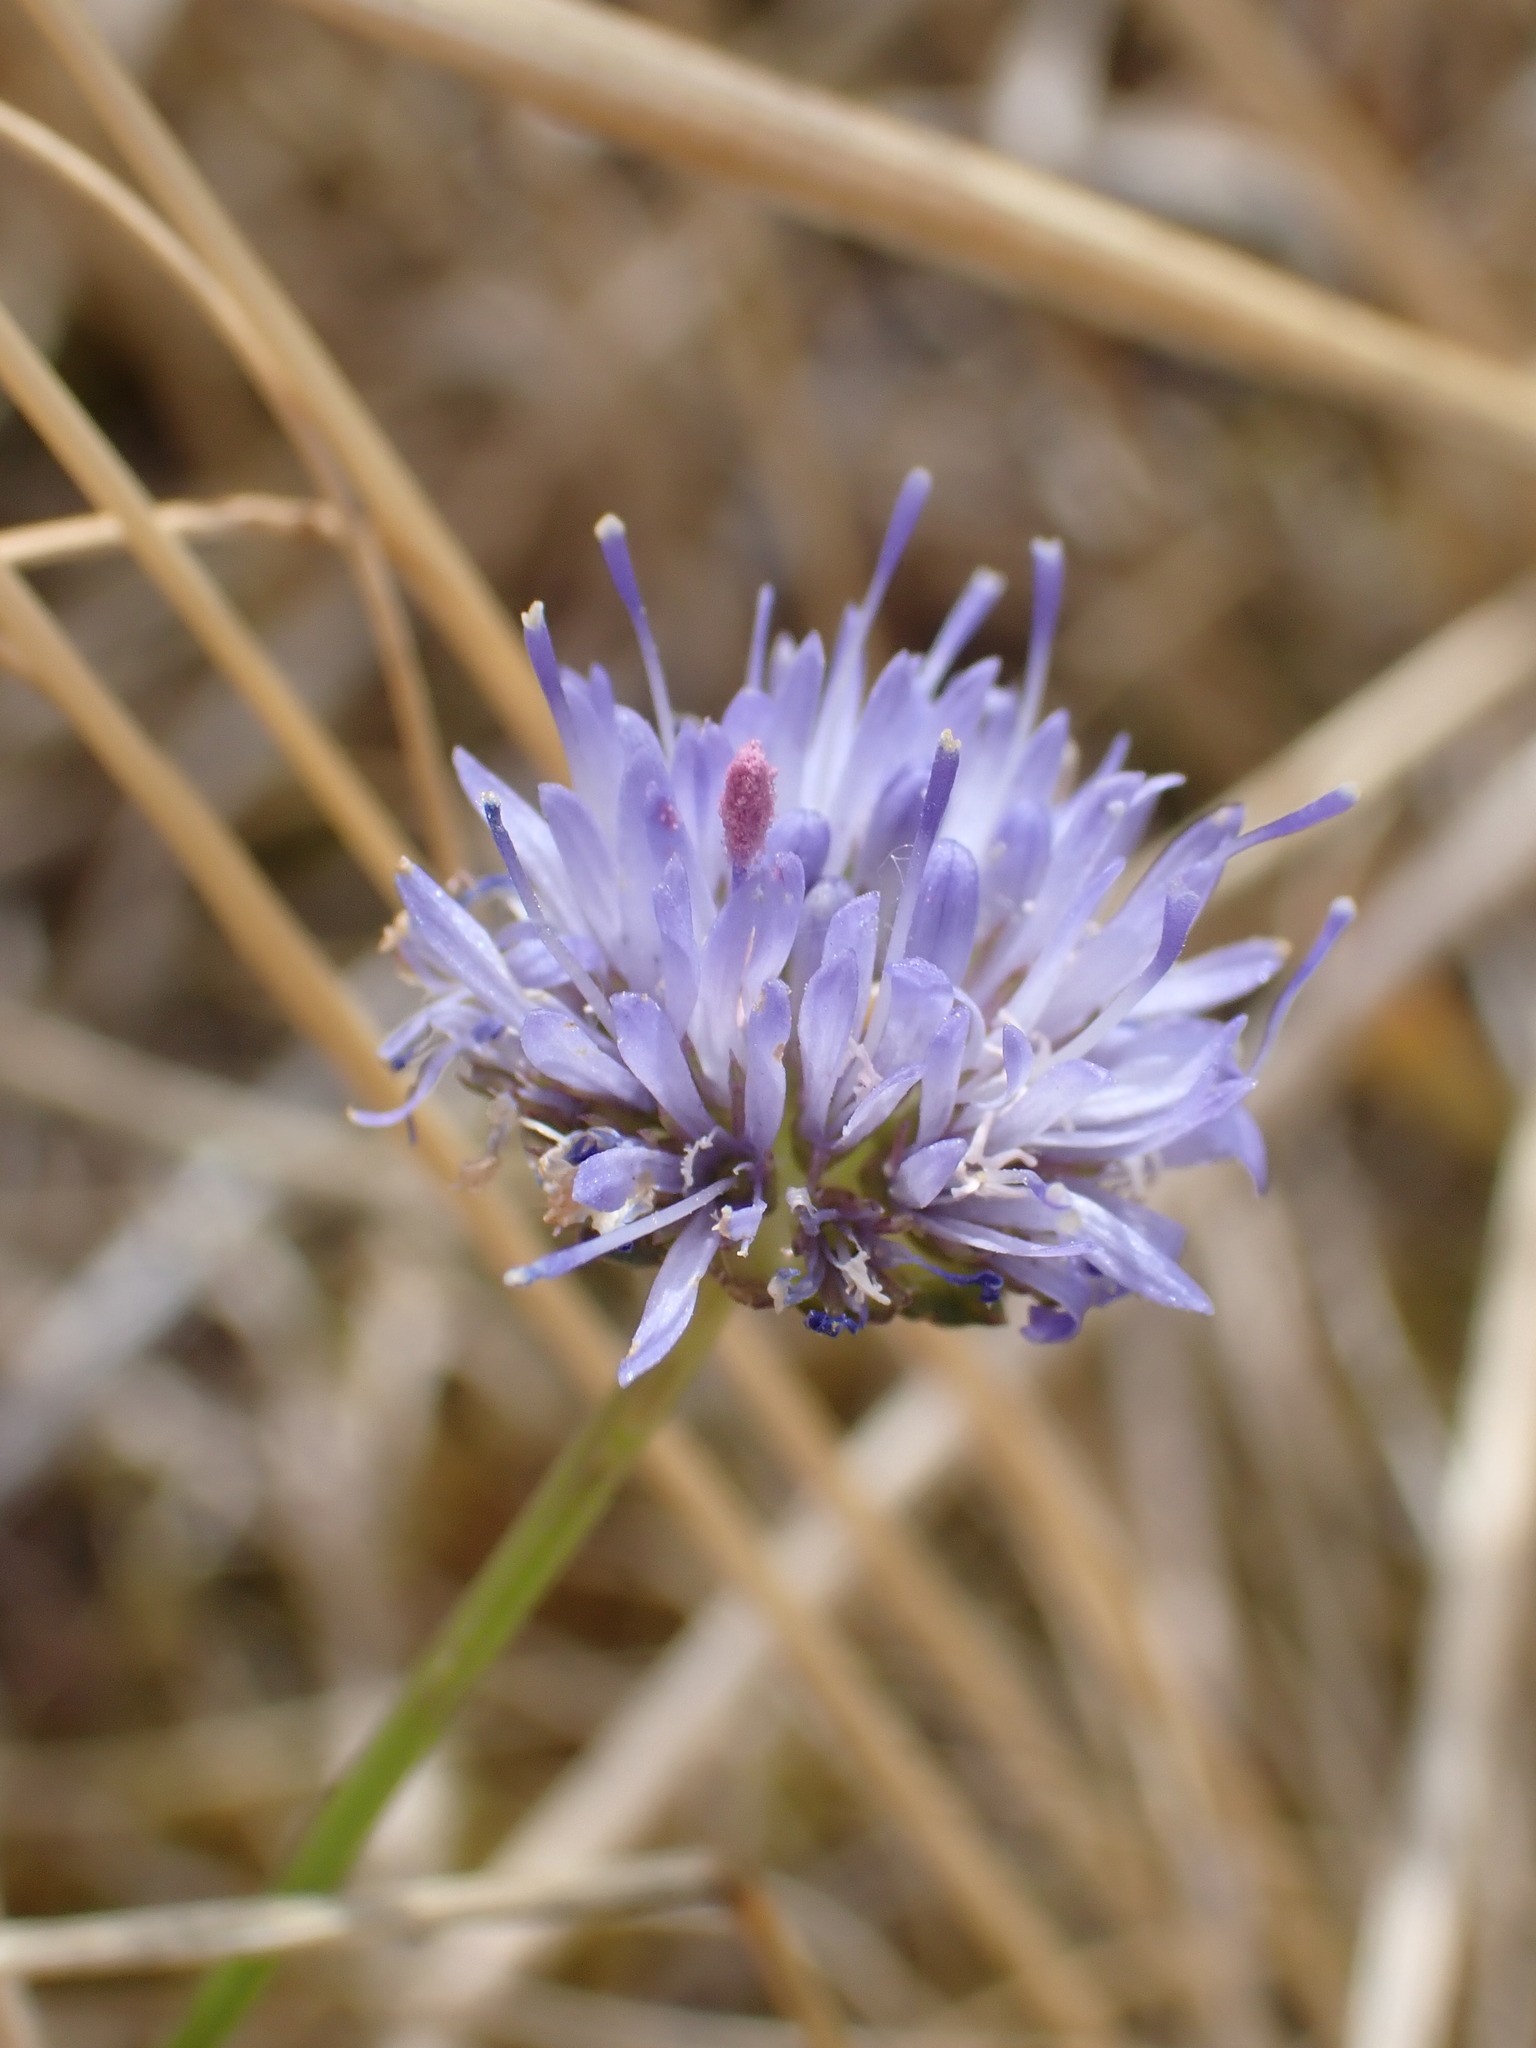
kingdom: Plantae
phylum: Tracheophyta
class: Magnoliopsida
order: Asterales
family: Campanulaceae
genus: Jasione
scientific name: Jasione montana
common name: Sheep's-bit
